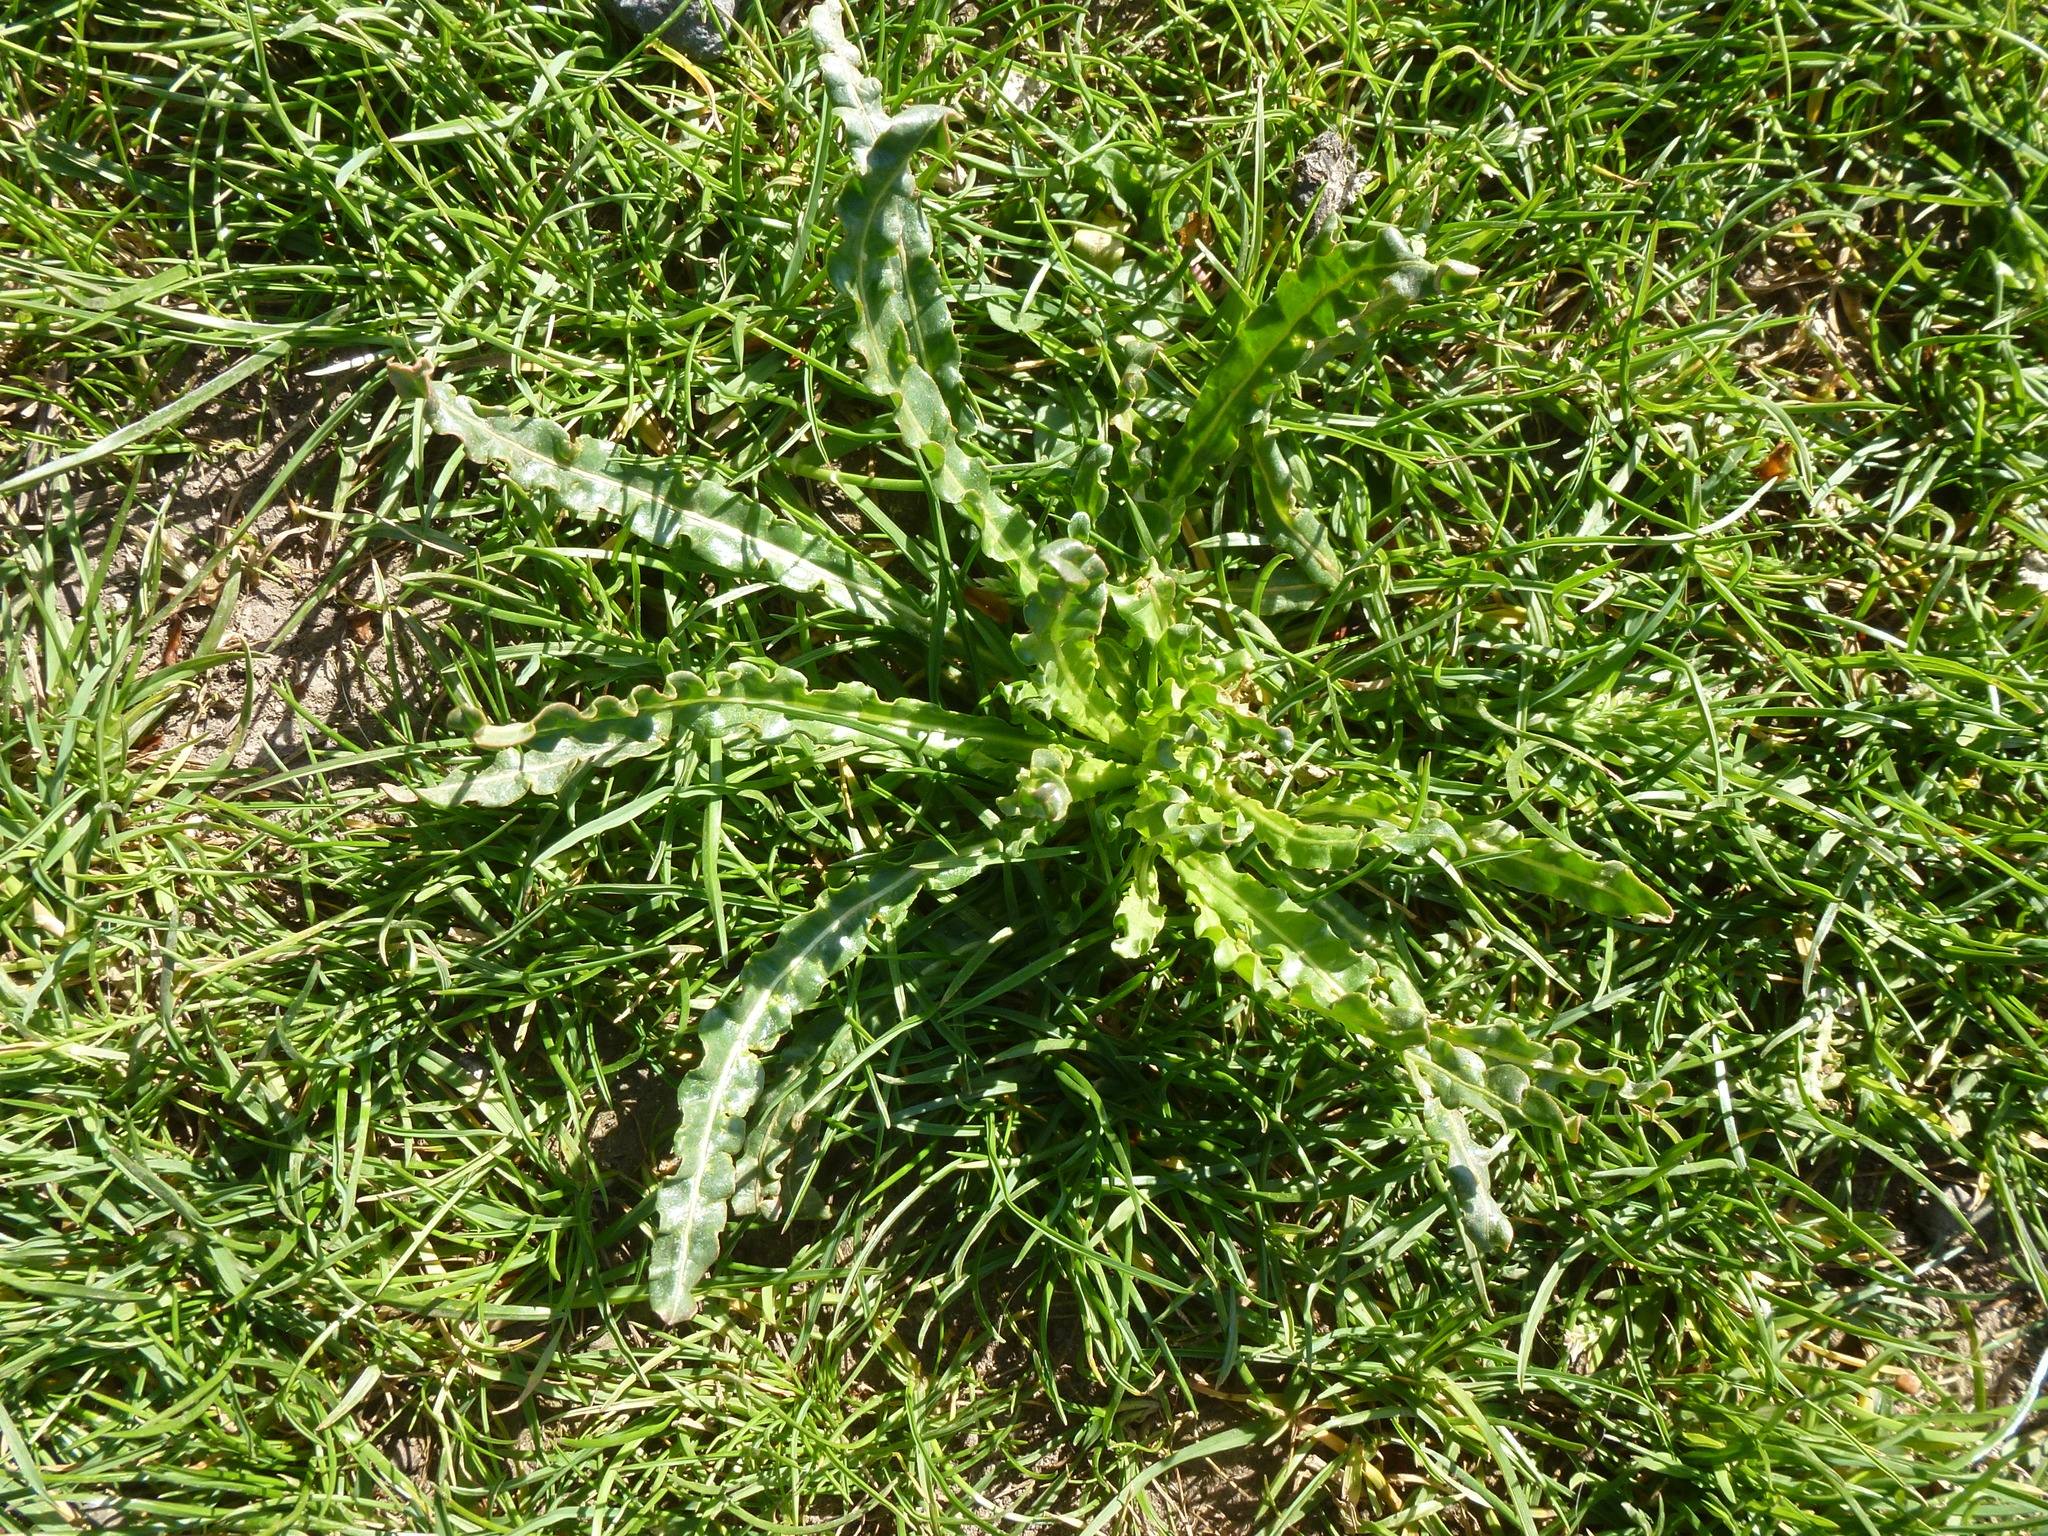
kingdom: Plantae
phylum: Tracheophyta
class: Magnoliopsida
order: Brassicales
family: Resedaceae
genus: Reseda
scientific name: Reseda luteola
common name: Weld
